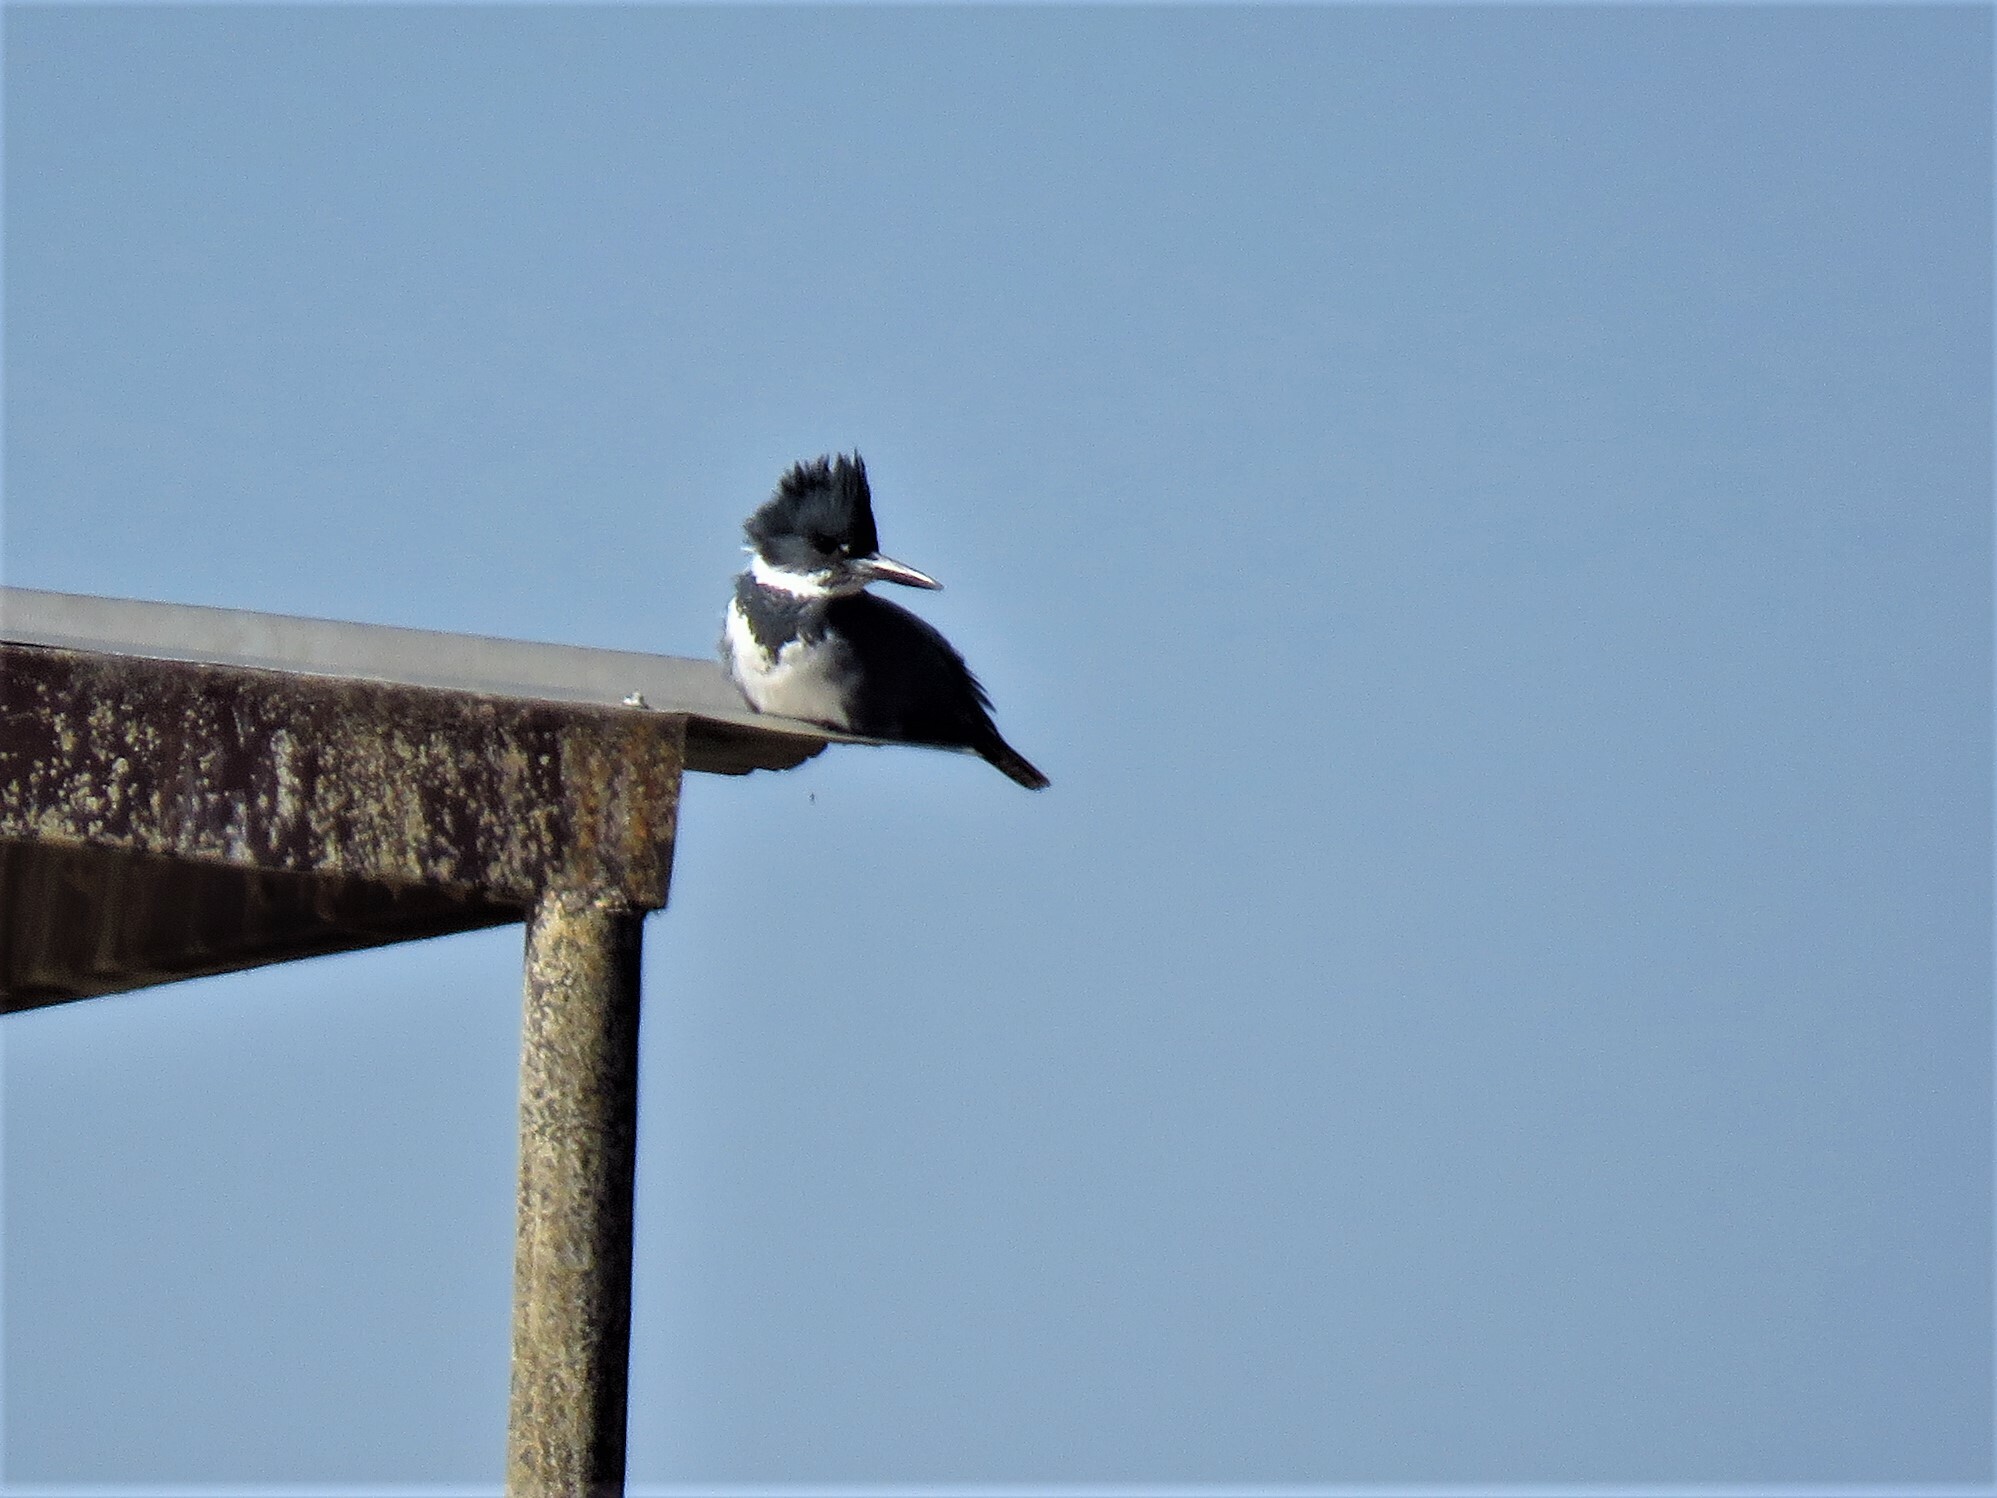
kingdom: Animalia
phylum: Chordata
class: Aves
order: Coraciiformes
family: Alcedinidae
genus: Megaceryle
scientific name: Megaceryle alcyon
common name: Belted kingfisher
